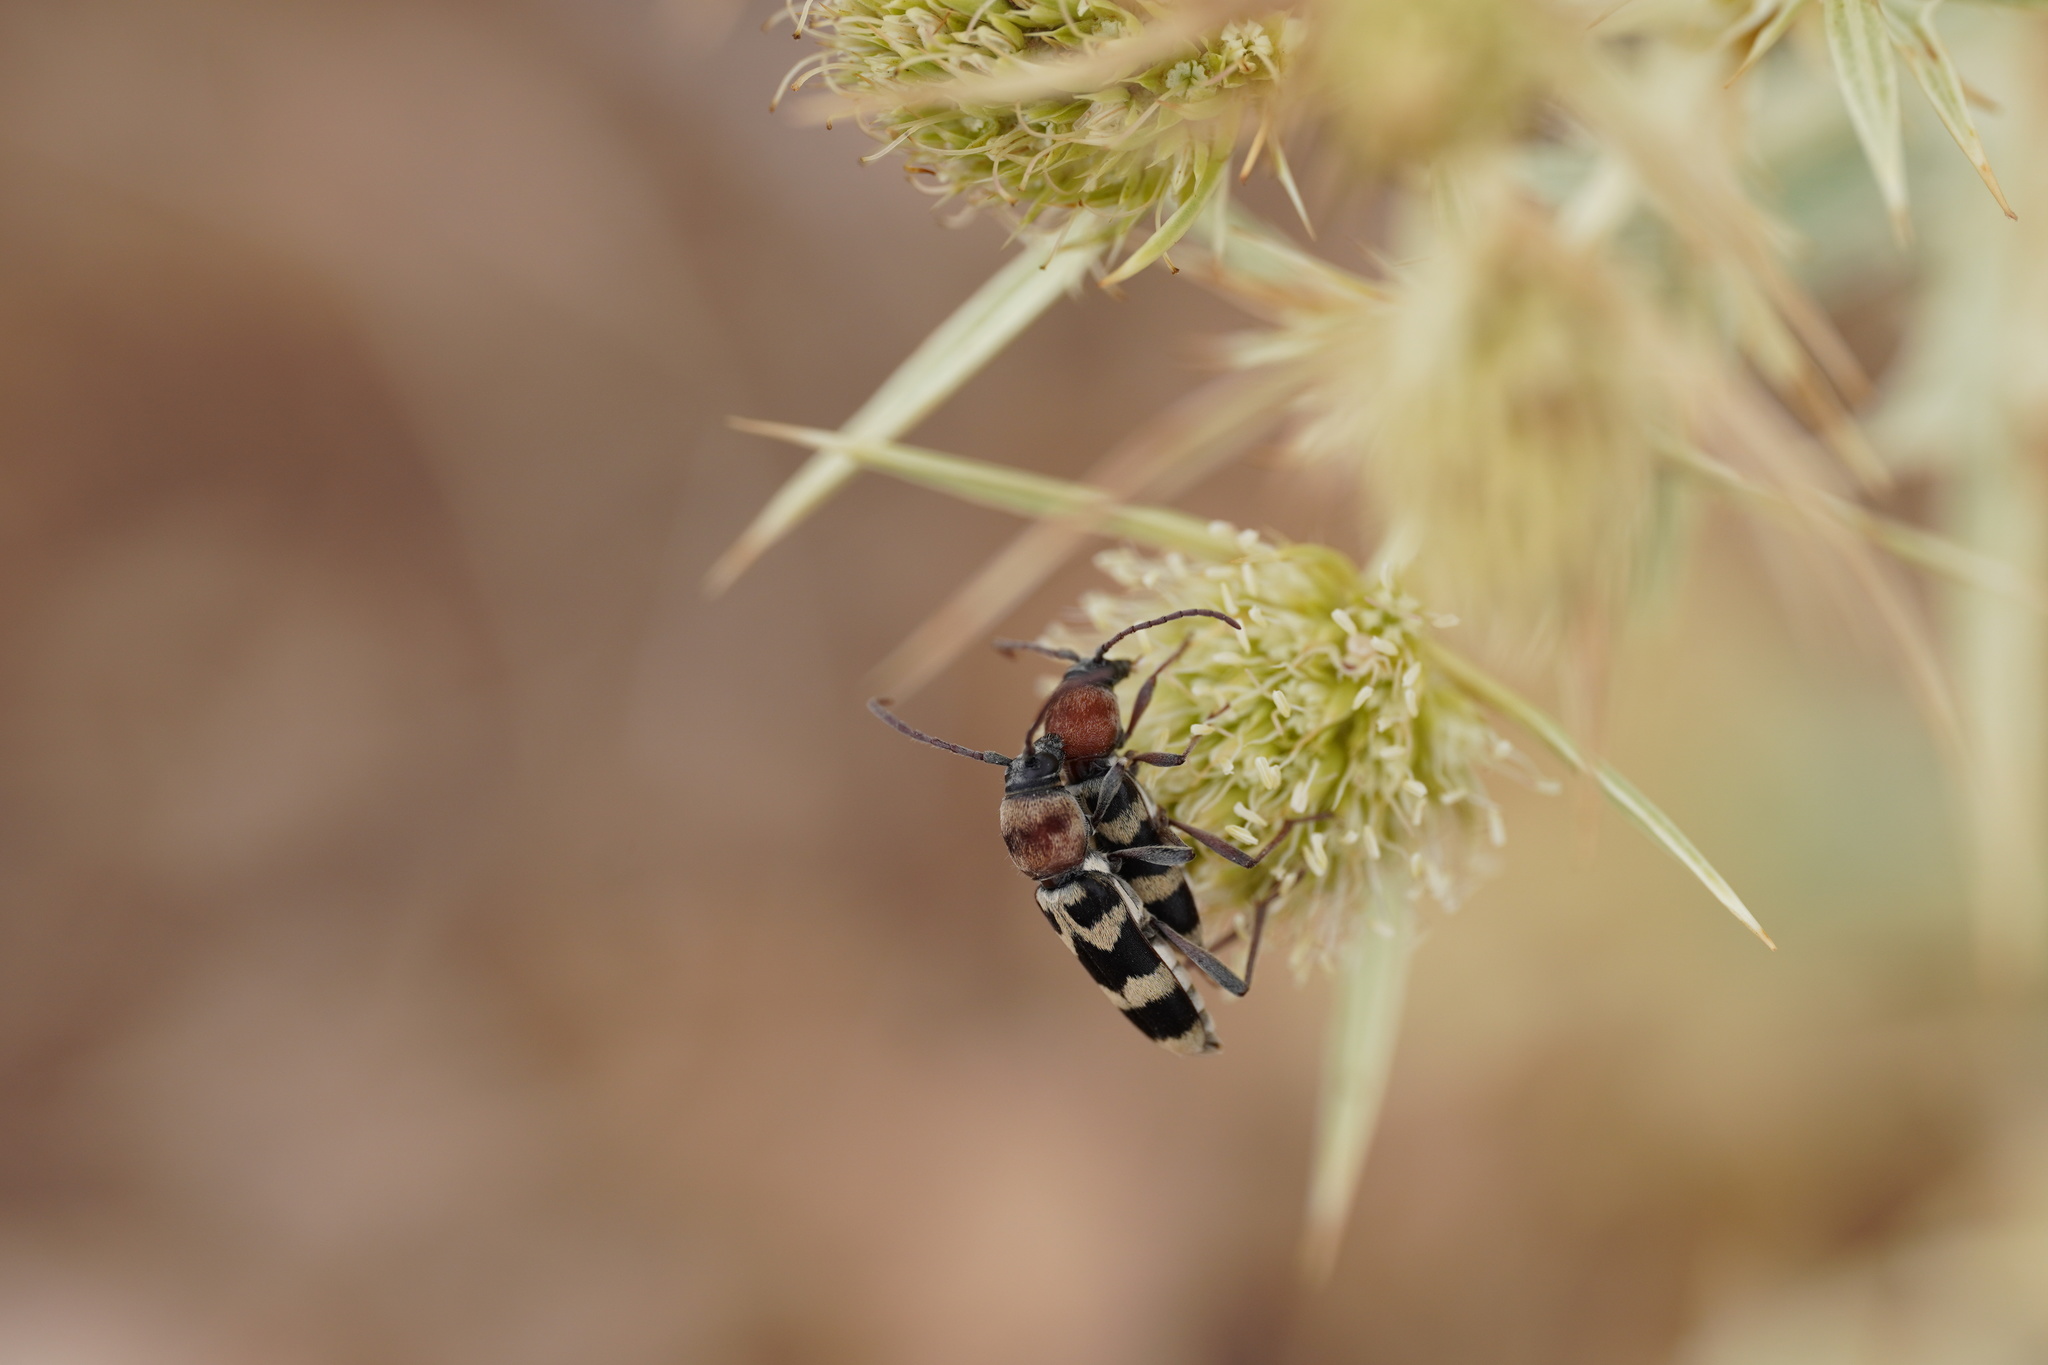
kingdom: Animalia
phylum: Arthropoda
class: Insecta
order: Coleoptera
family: Cerambycidae
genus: Chlorophorus
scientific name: Chlorophorus trifasciatus
